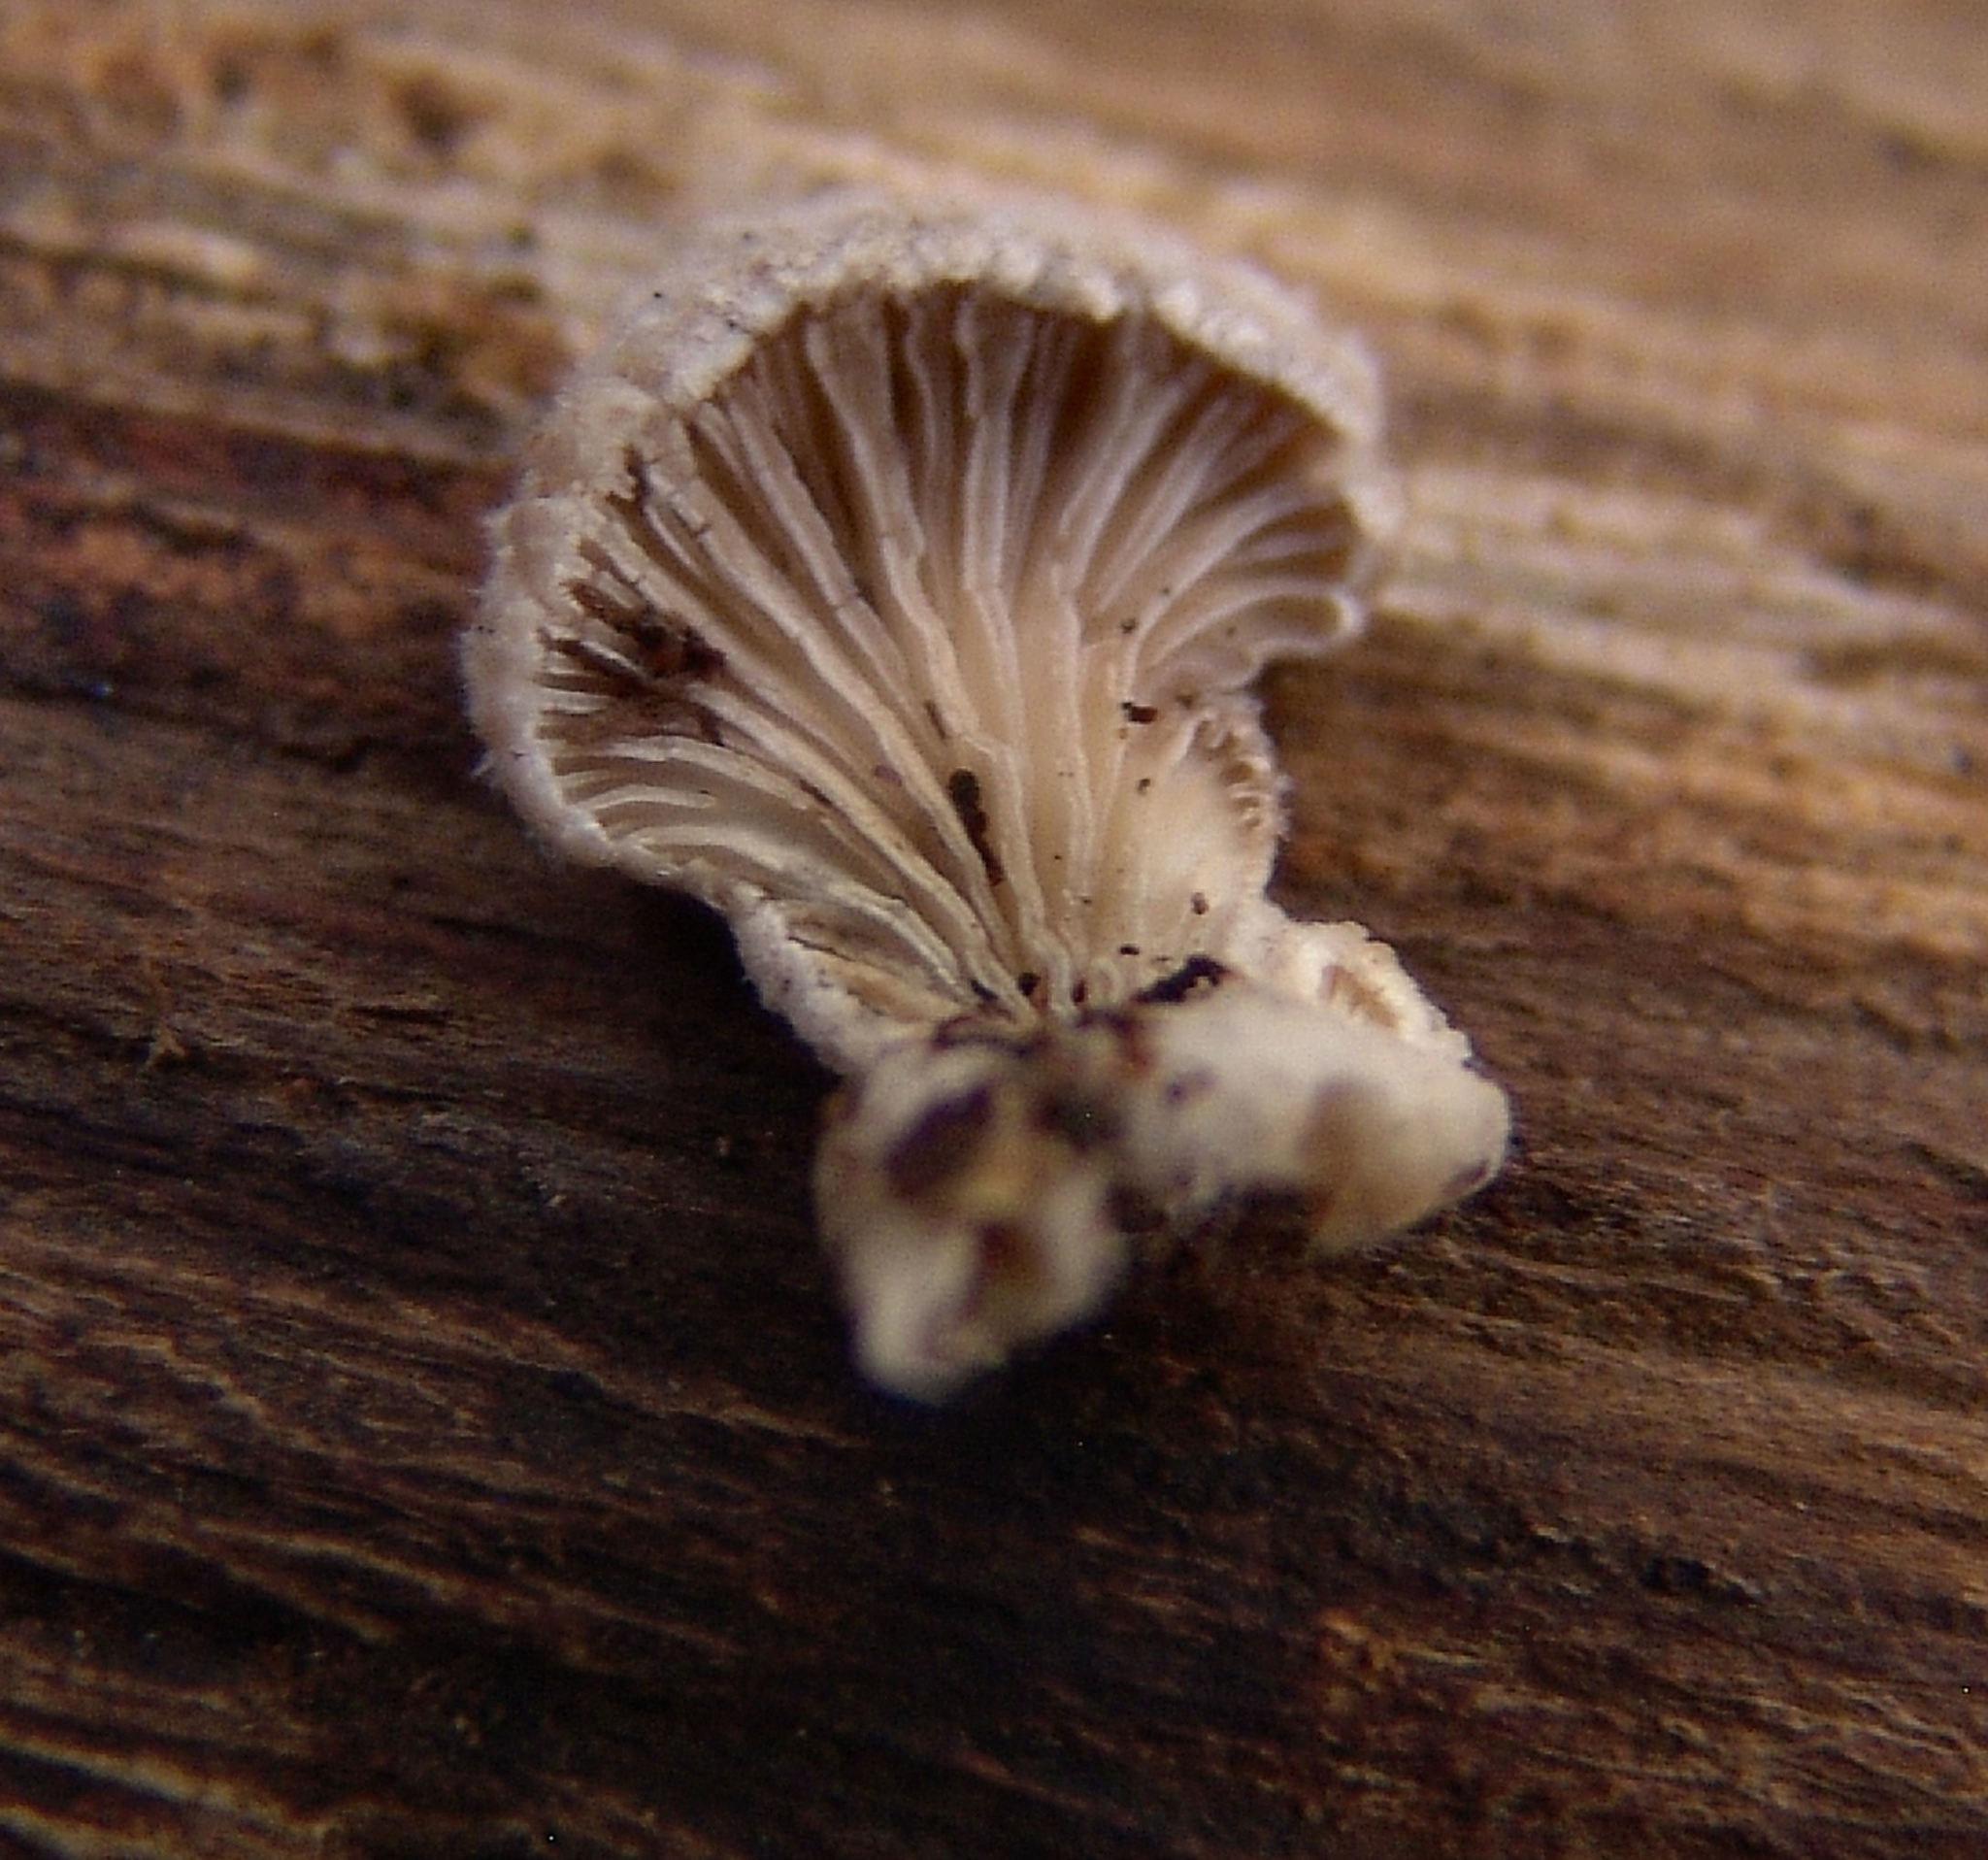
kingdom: Fungi
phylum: Basidiomycota
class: Agaricomycetes
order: Agaricales
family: Schizophyllaceae
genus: Schizophyllum
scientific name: Schizophyllum commune
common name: Common porecrust
